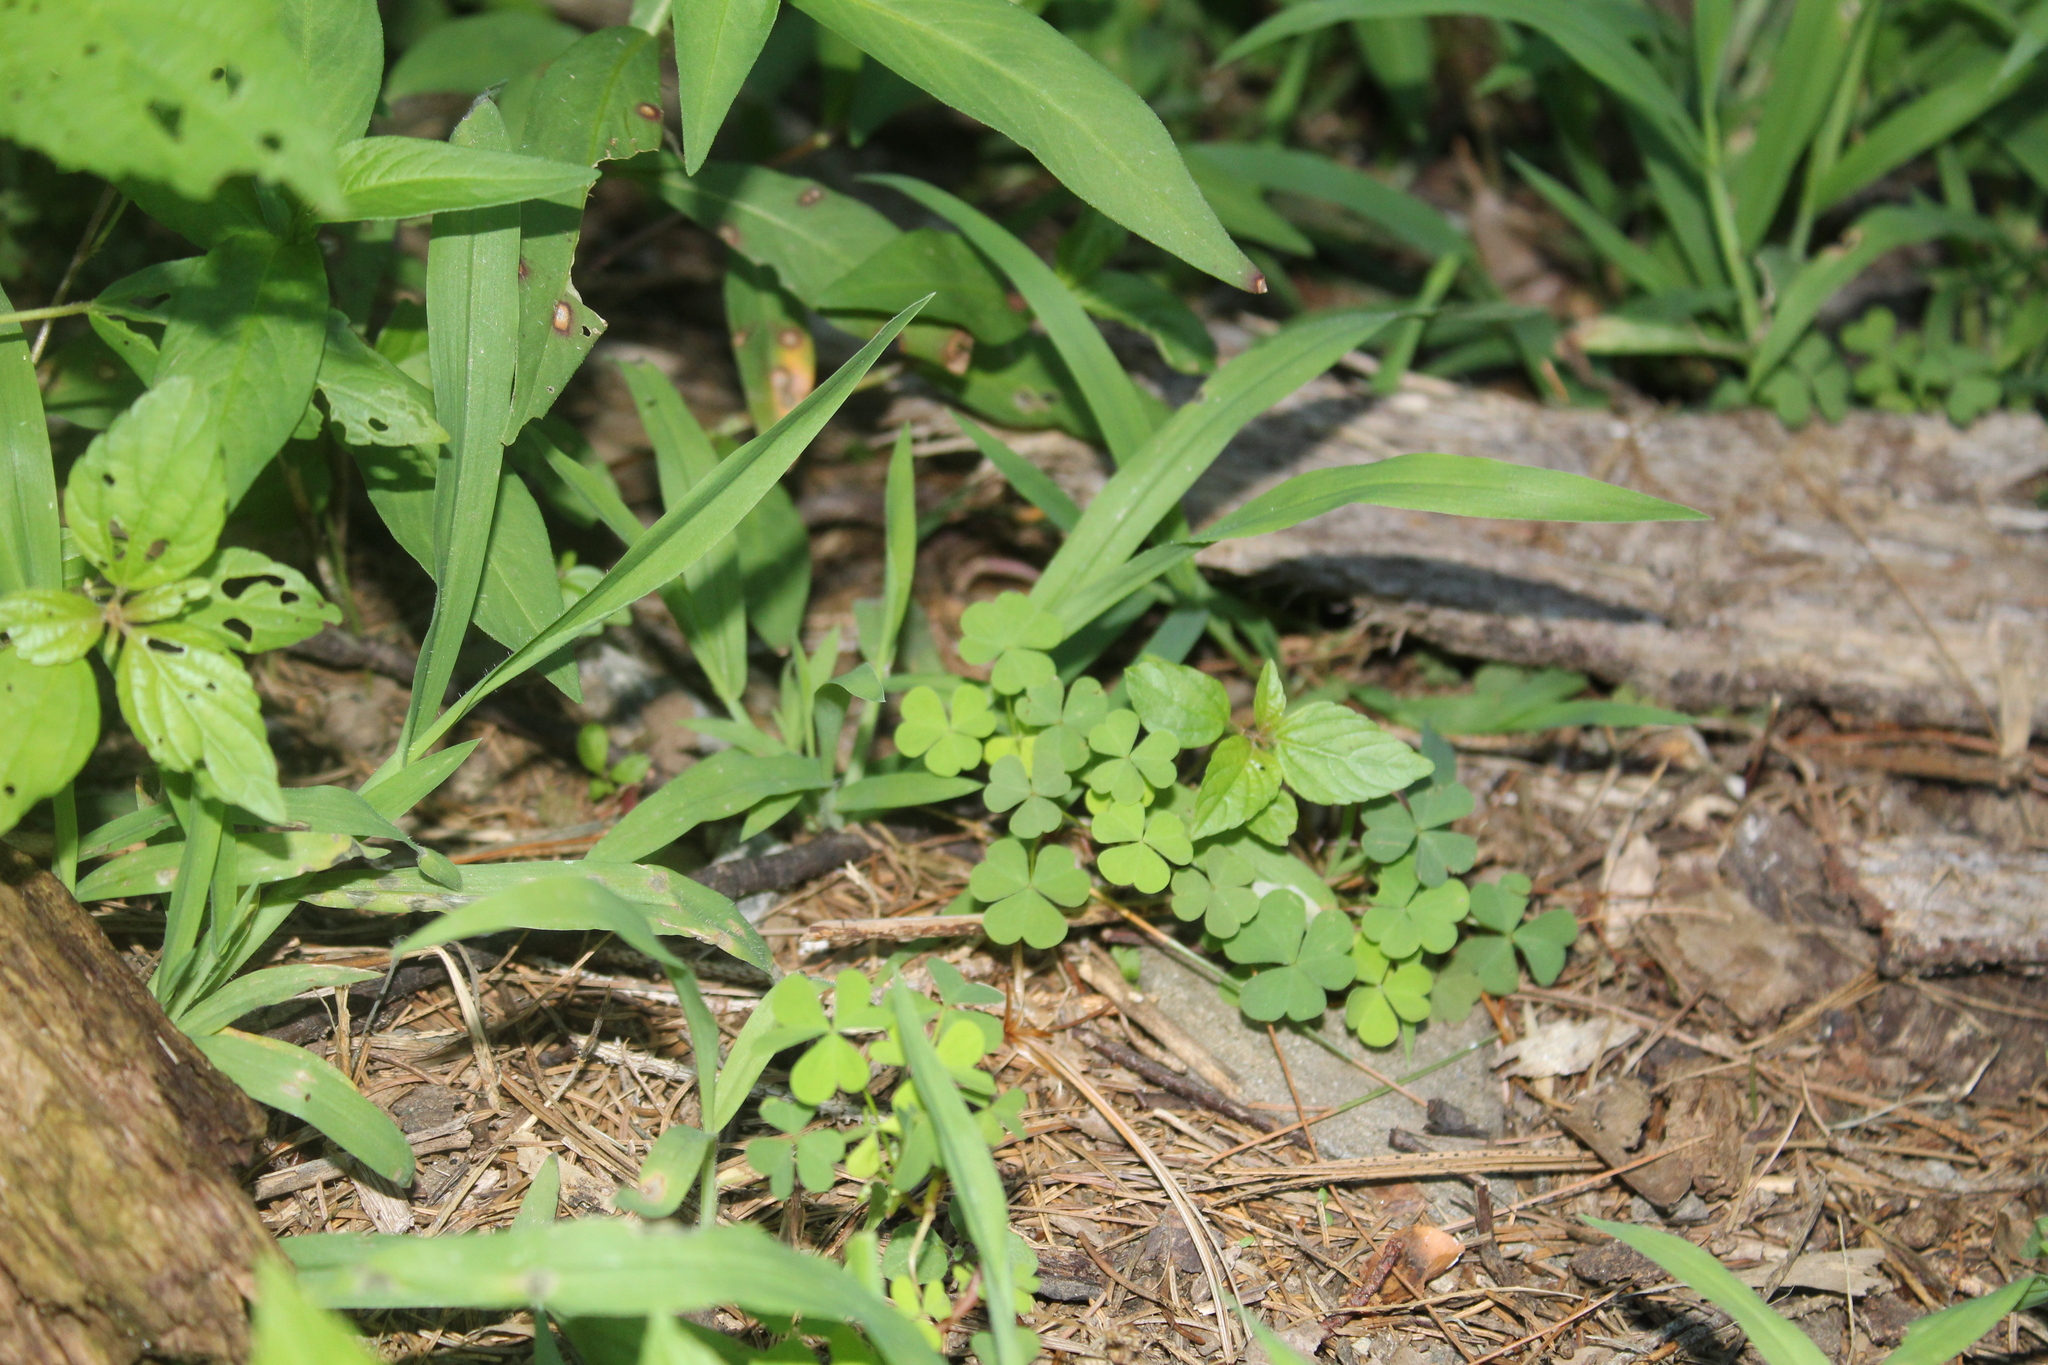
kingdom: Plantae
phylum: Tracheophyta
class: Magnoliopsida
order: Oxalidales
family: Oxalidaceae
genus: Oxalis
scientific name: Oxalis stricta
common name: Upright yellow-sorrel
